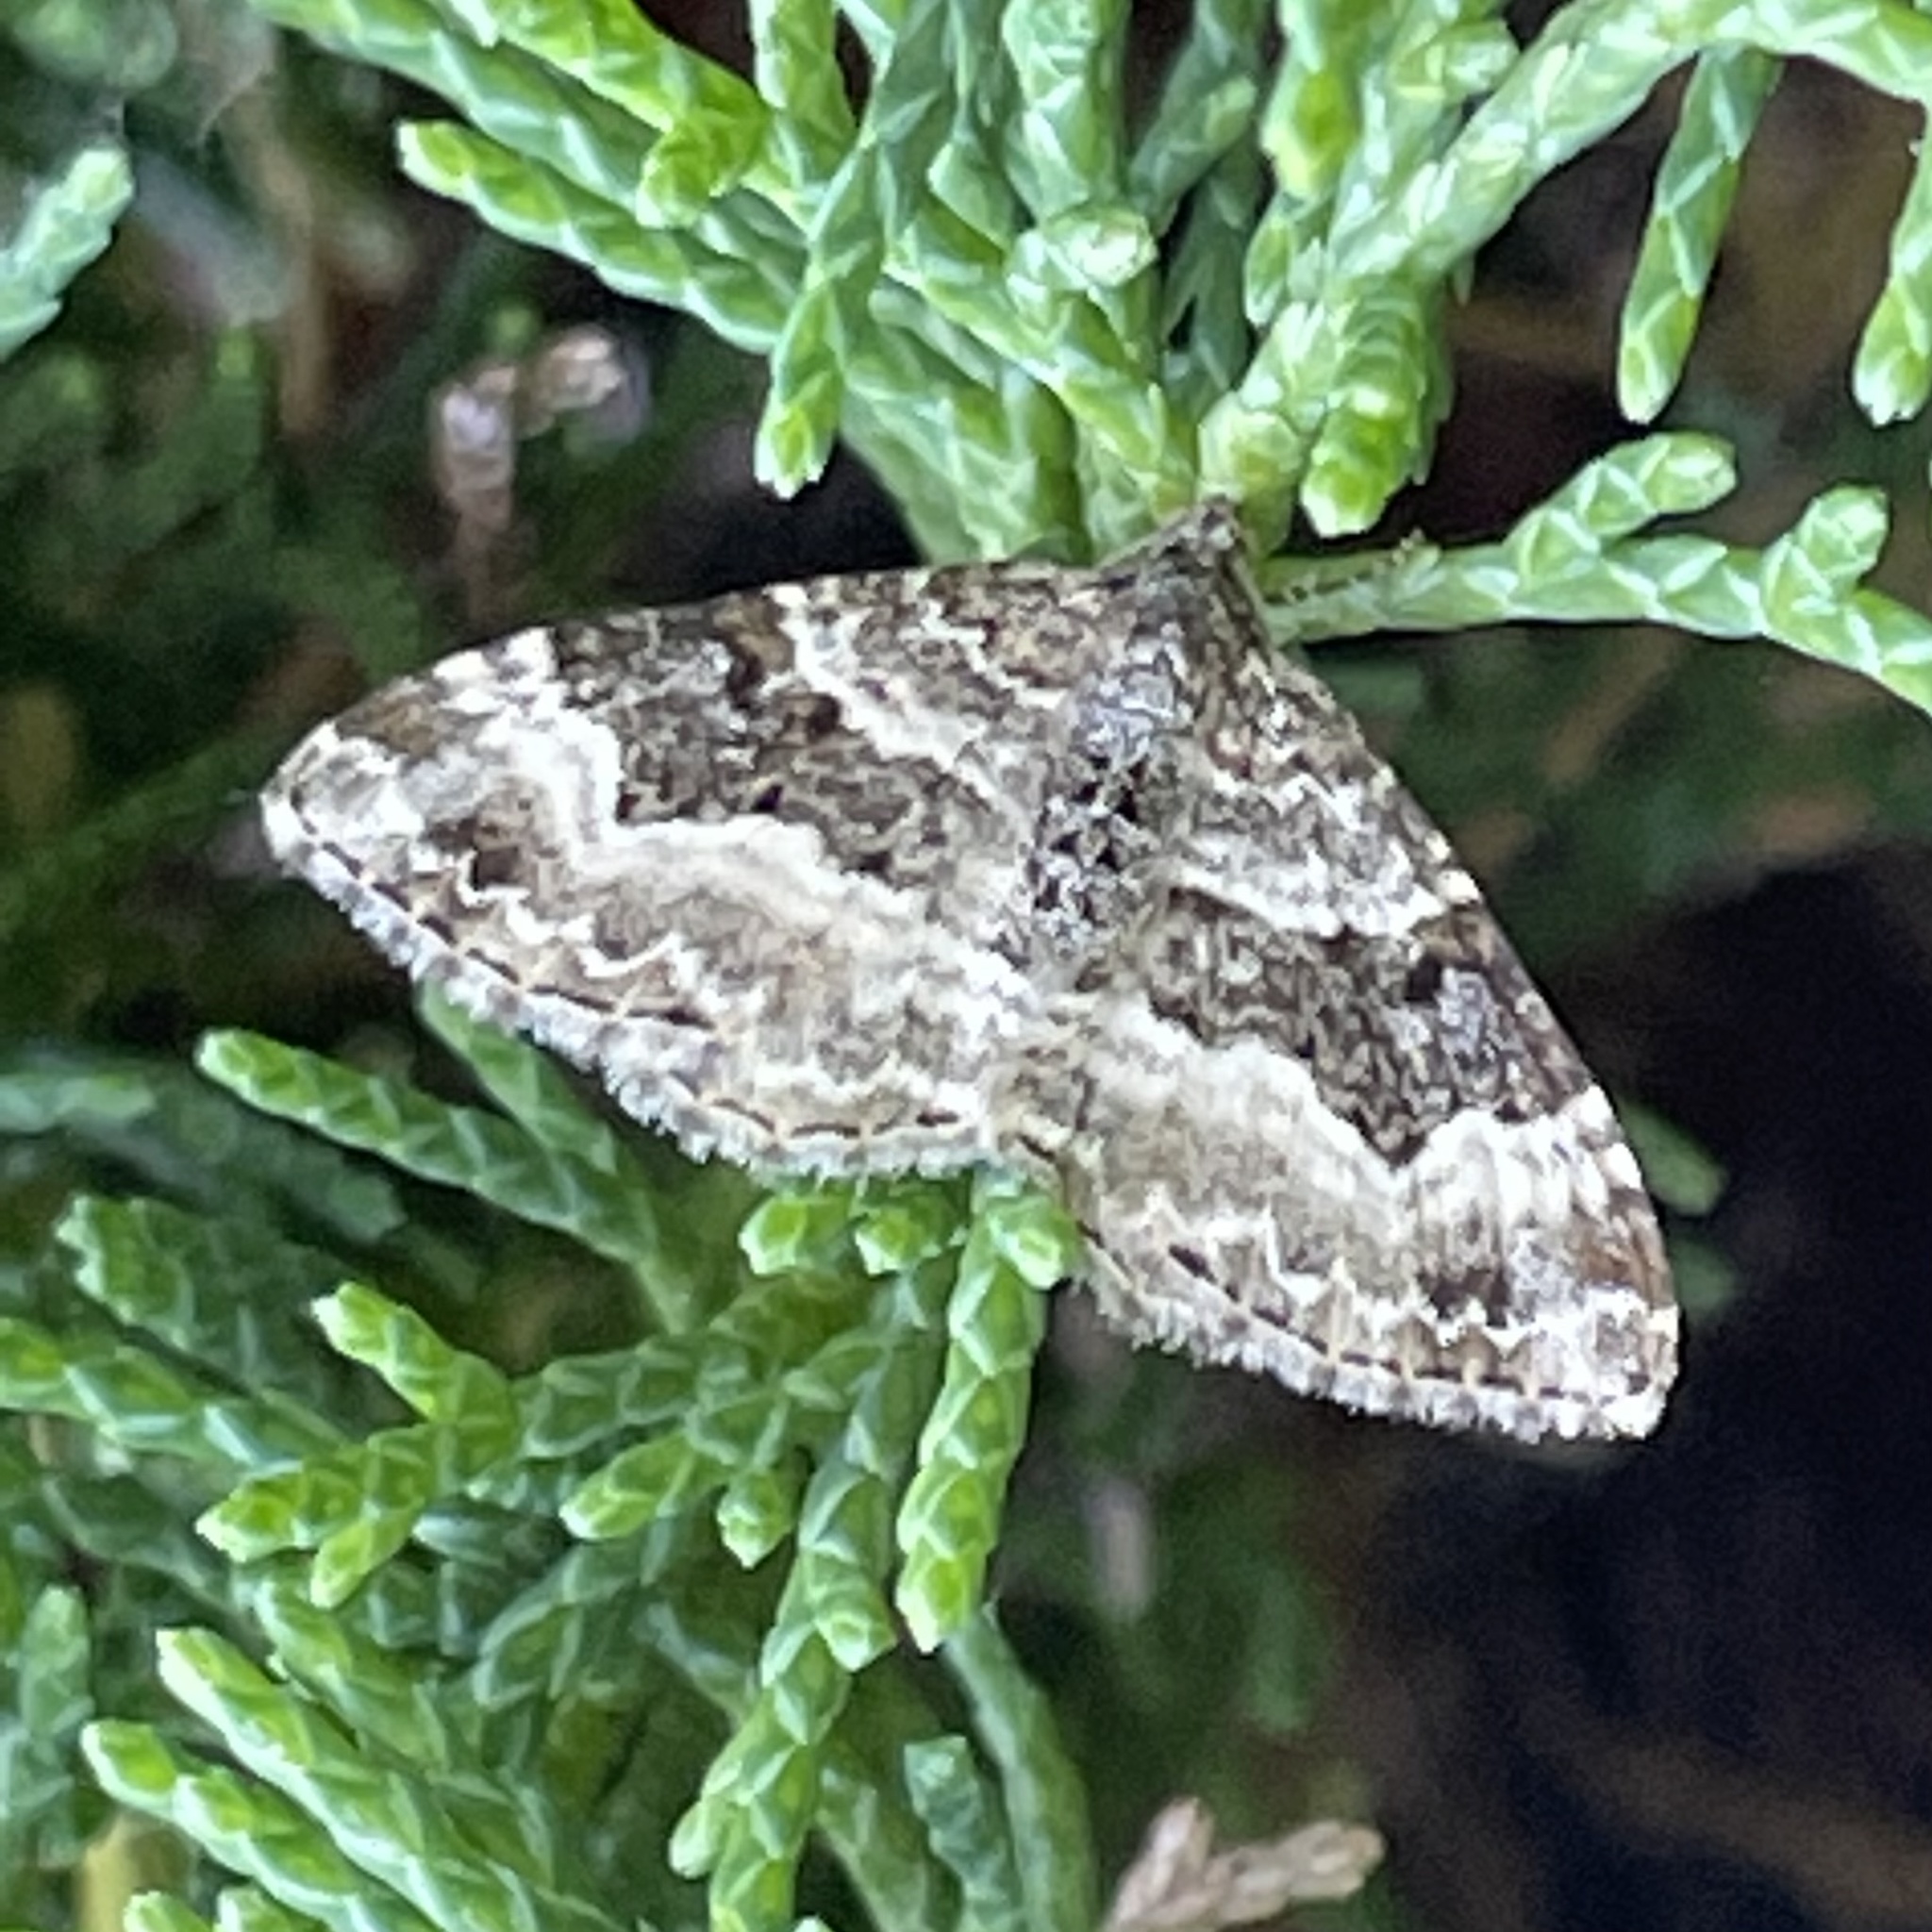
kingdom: Animalia
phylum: Arthropoda
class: Insecta
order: Lepidoptera
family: Geometridae
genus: Epirrhoe
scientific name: Epirrhoe alternata
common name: Common carpet
